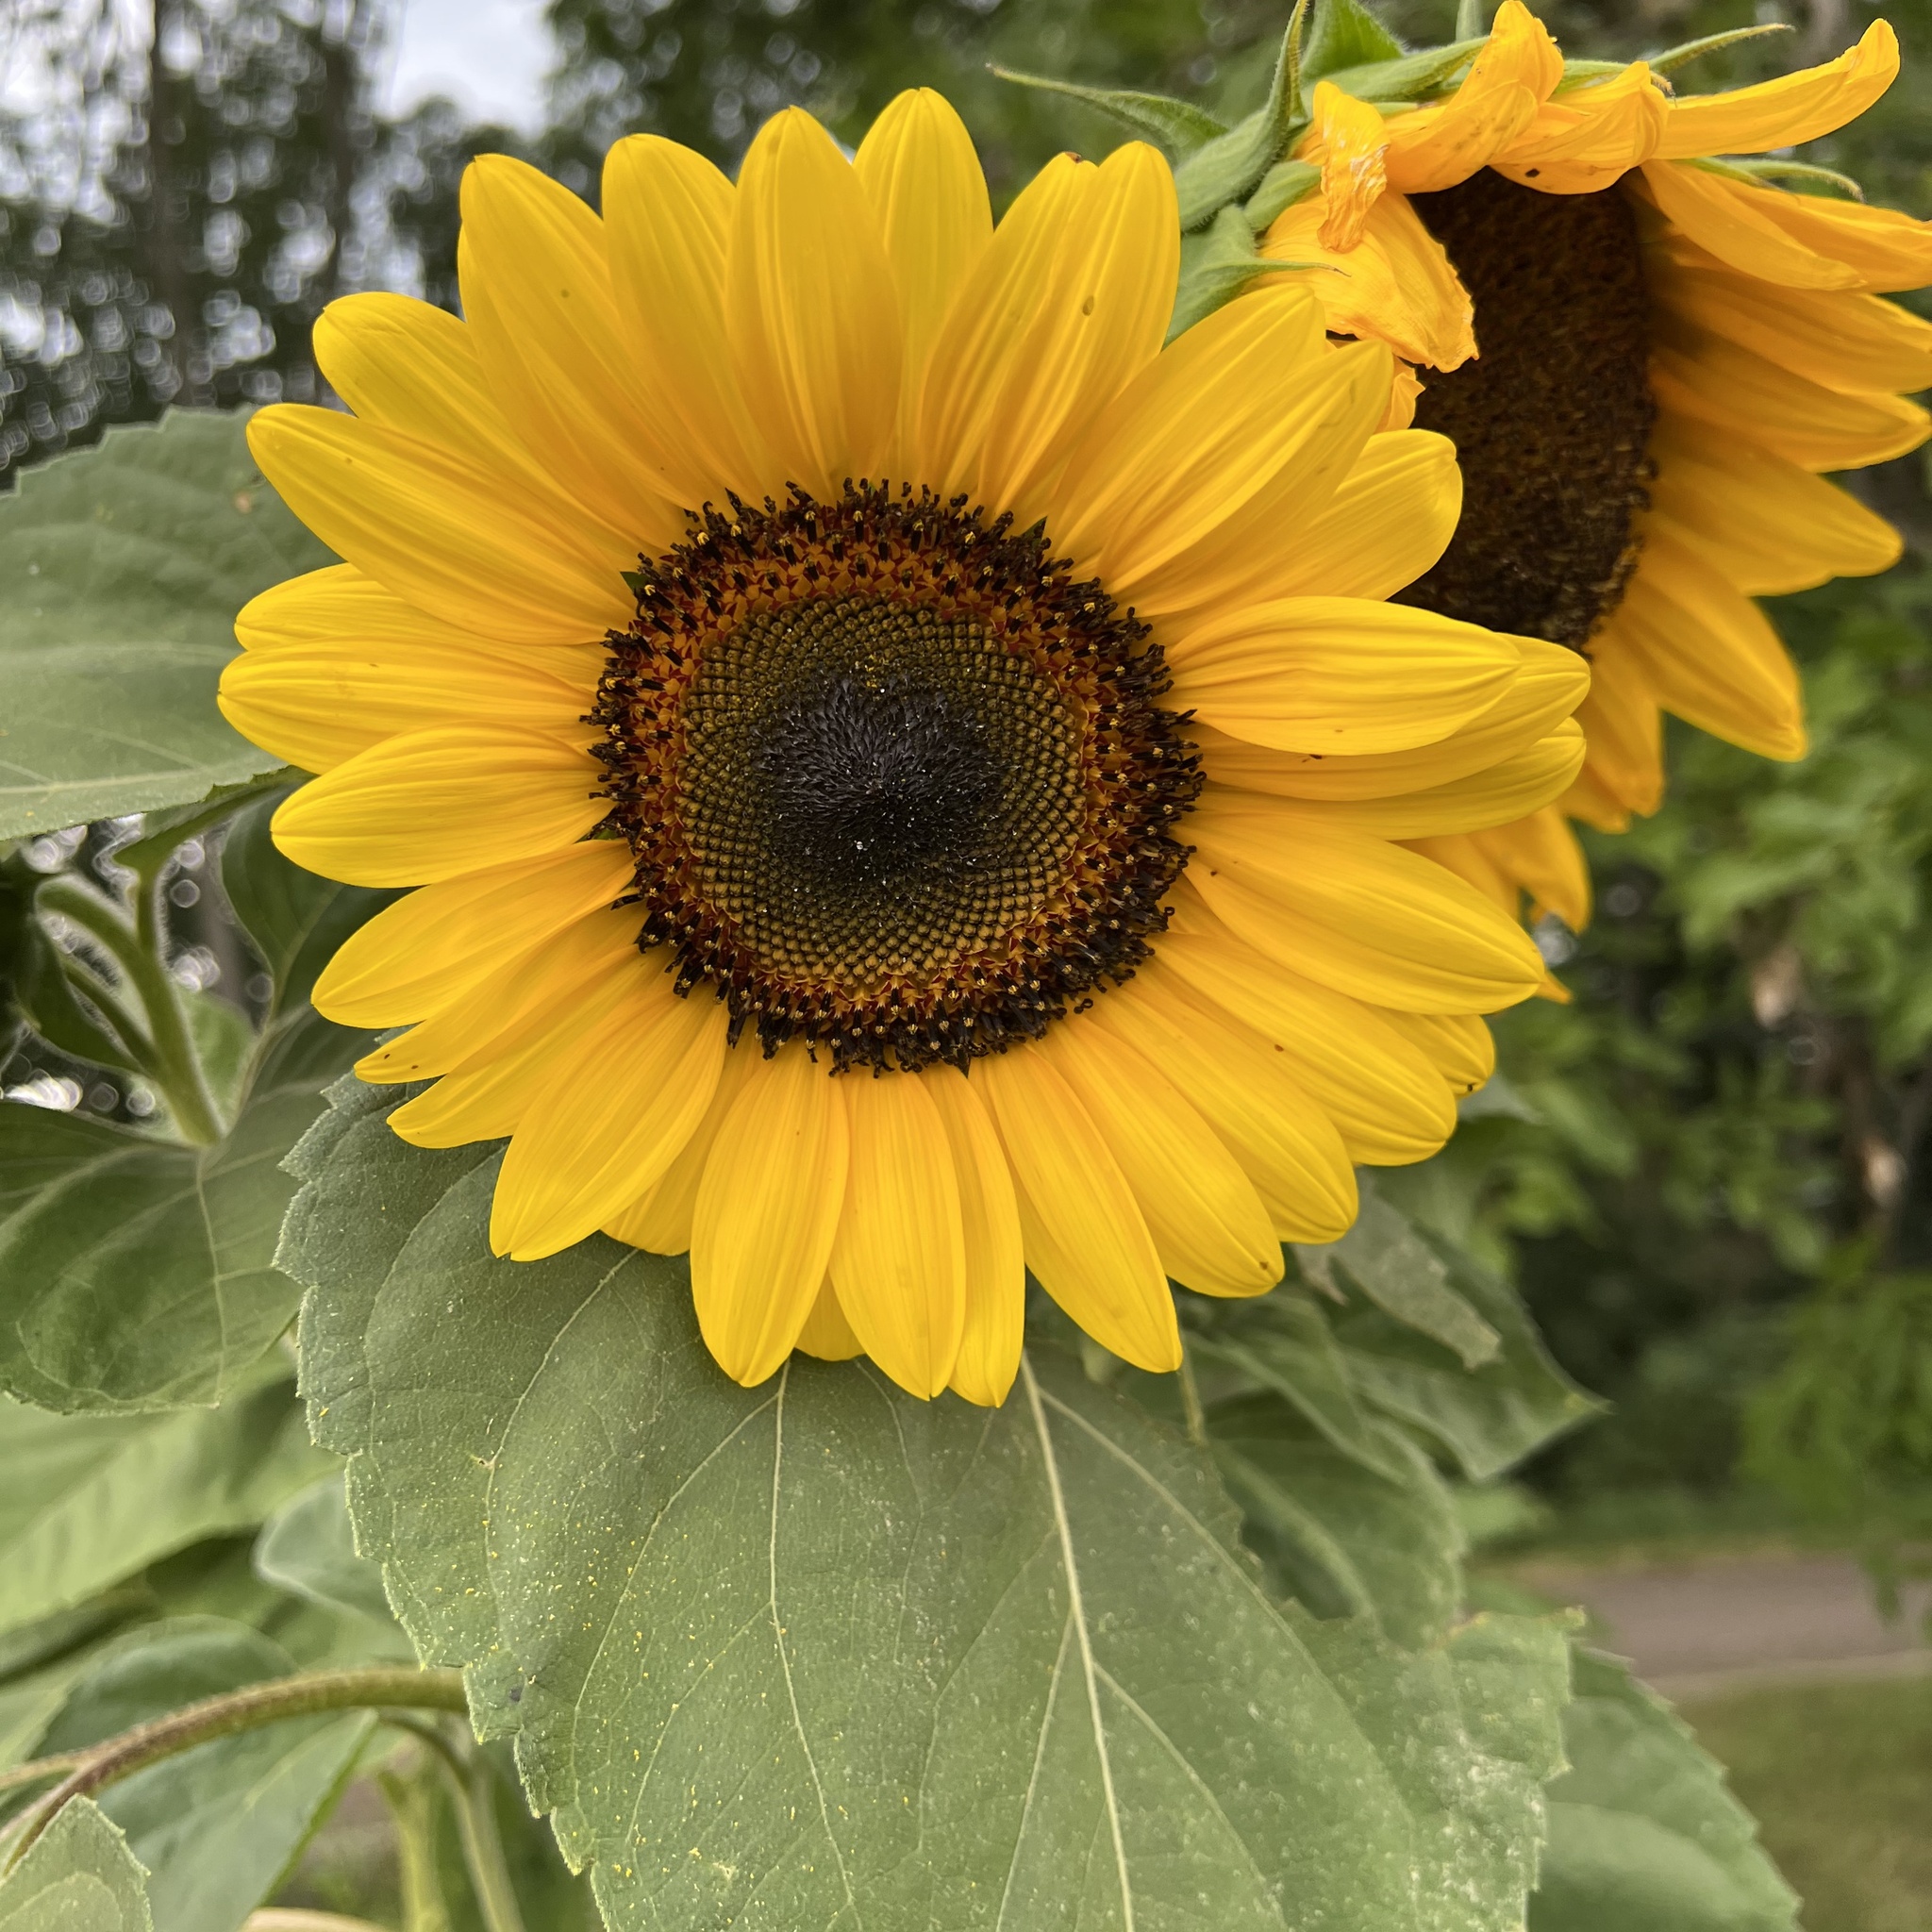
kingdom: Plantae
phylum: Tracheophyta
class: Magnoliopsida
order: Asterales
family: Asteraceae
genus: Helianthus
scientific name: Helianthus annuus
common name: Sunflower
